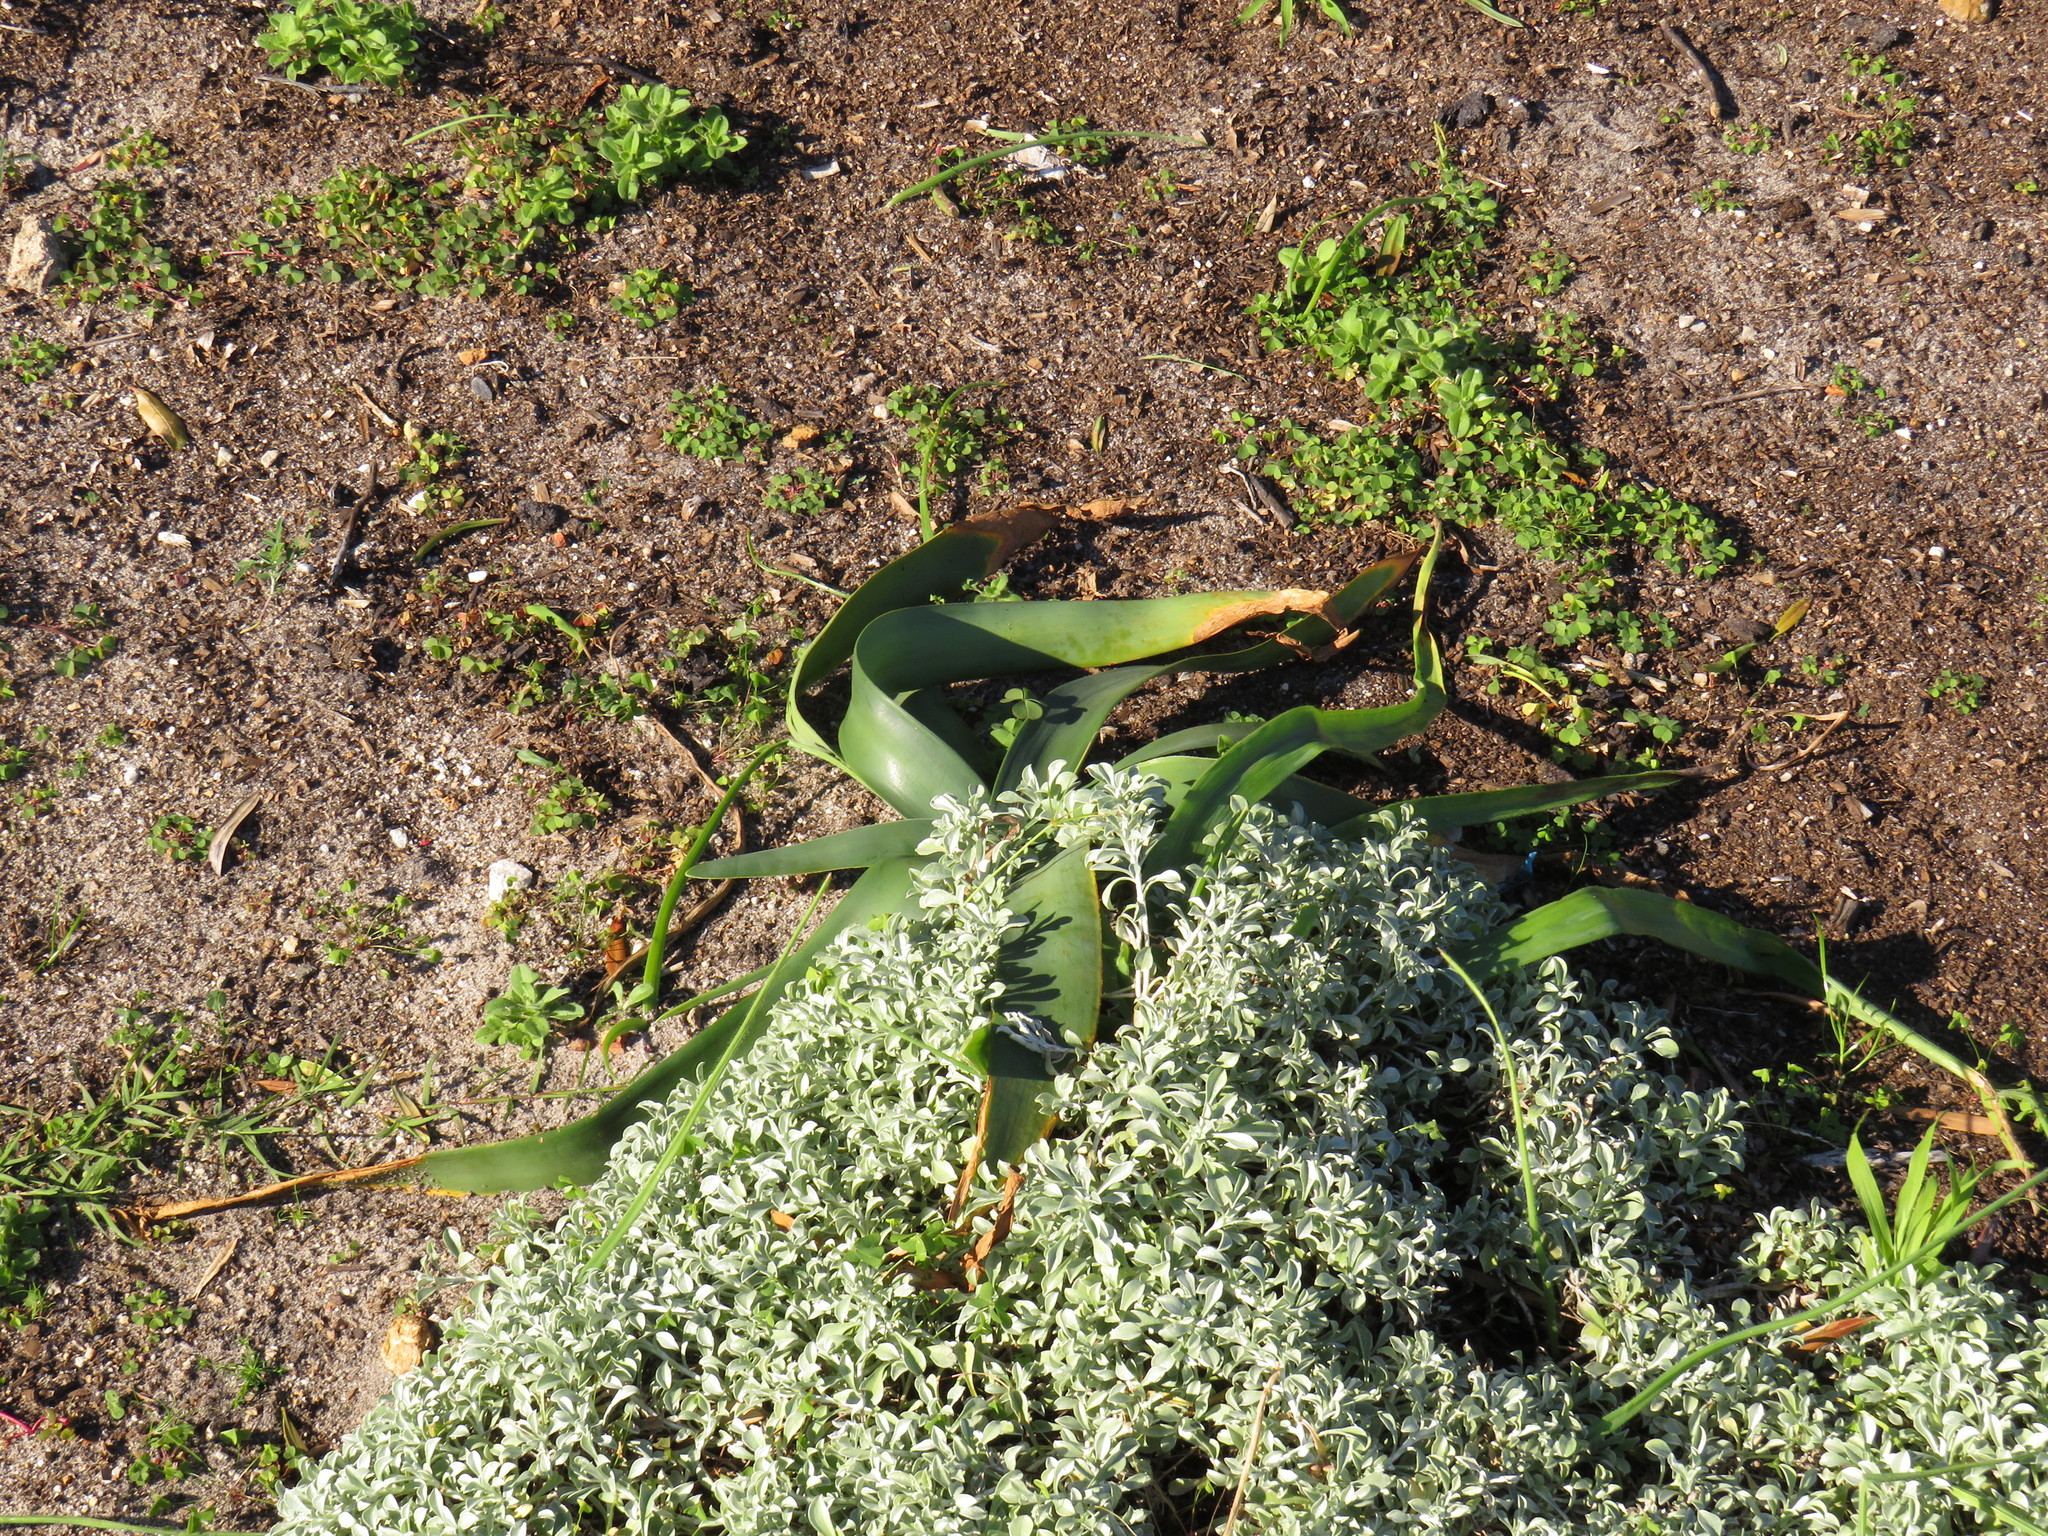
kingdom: Plantae
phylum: Tracheophyta
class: Liliopsida
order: Asparagales
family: Amaryllidaceae
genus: Ammocharis
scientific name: Ammocharis longifolia
